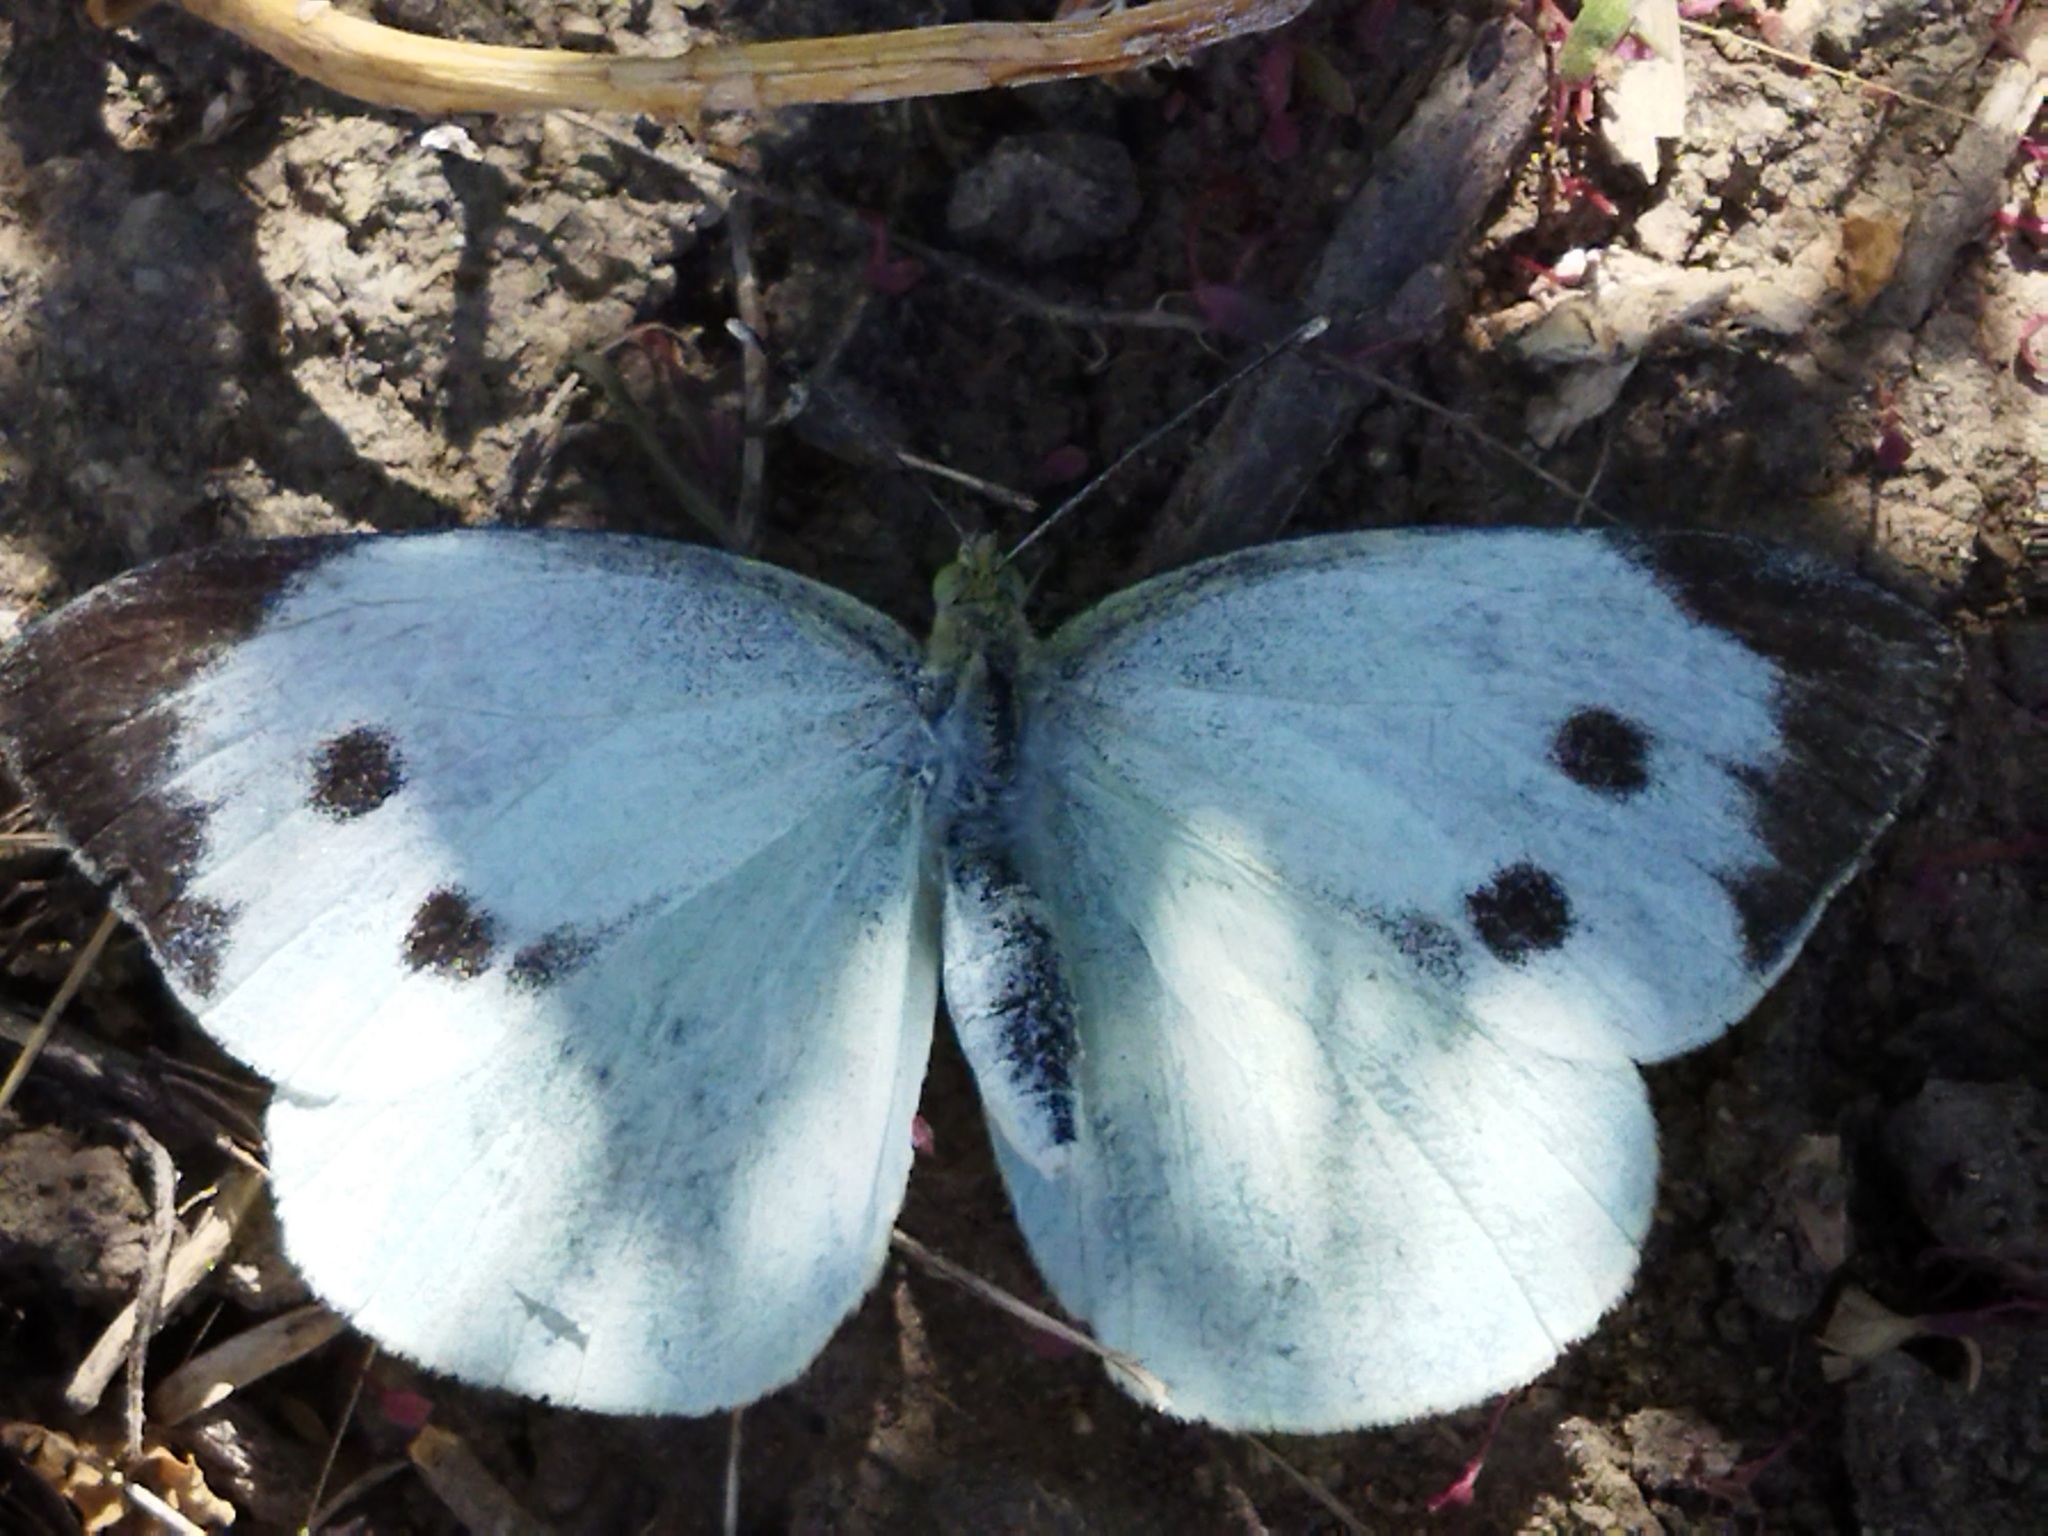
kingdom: Animalia
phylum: Arthropoda
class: Insecta
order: Lepidoptera
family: Pieridae
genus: Pieris
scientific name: Pieris brassicae
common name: Large white
